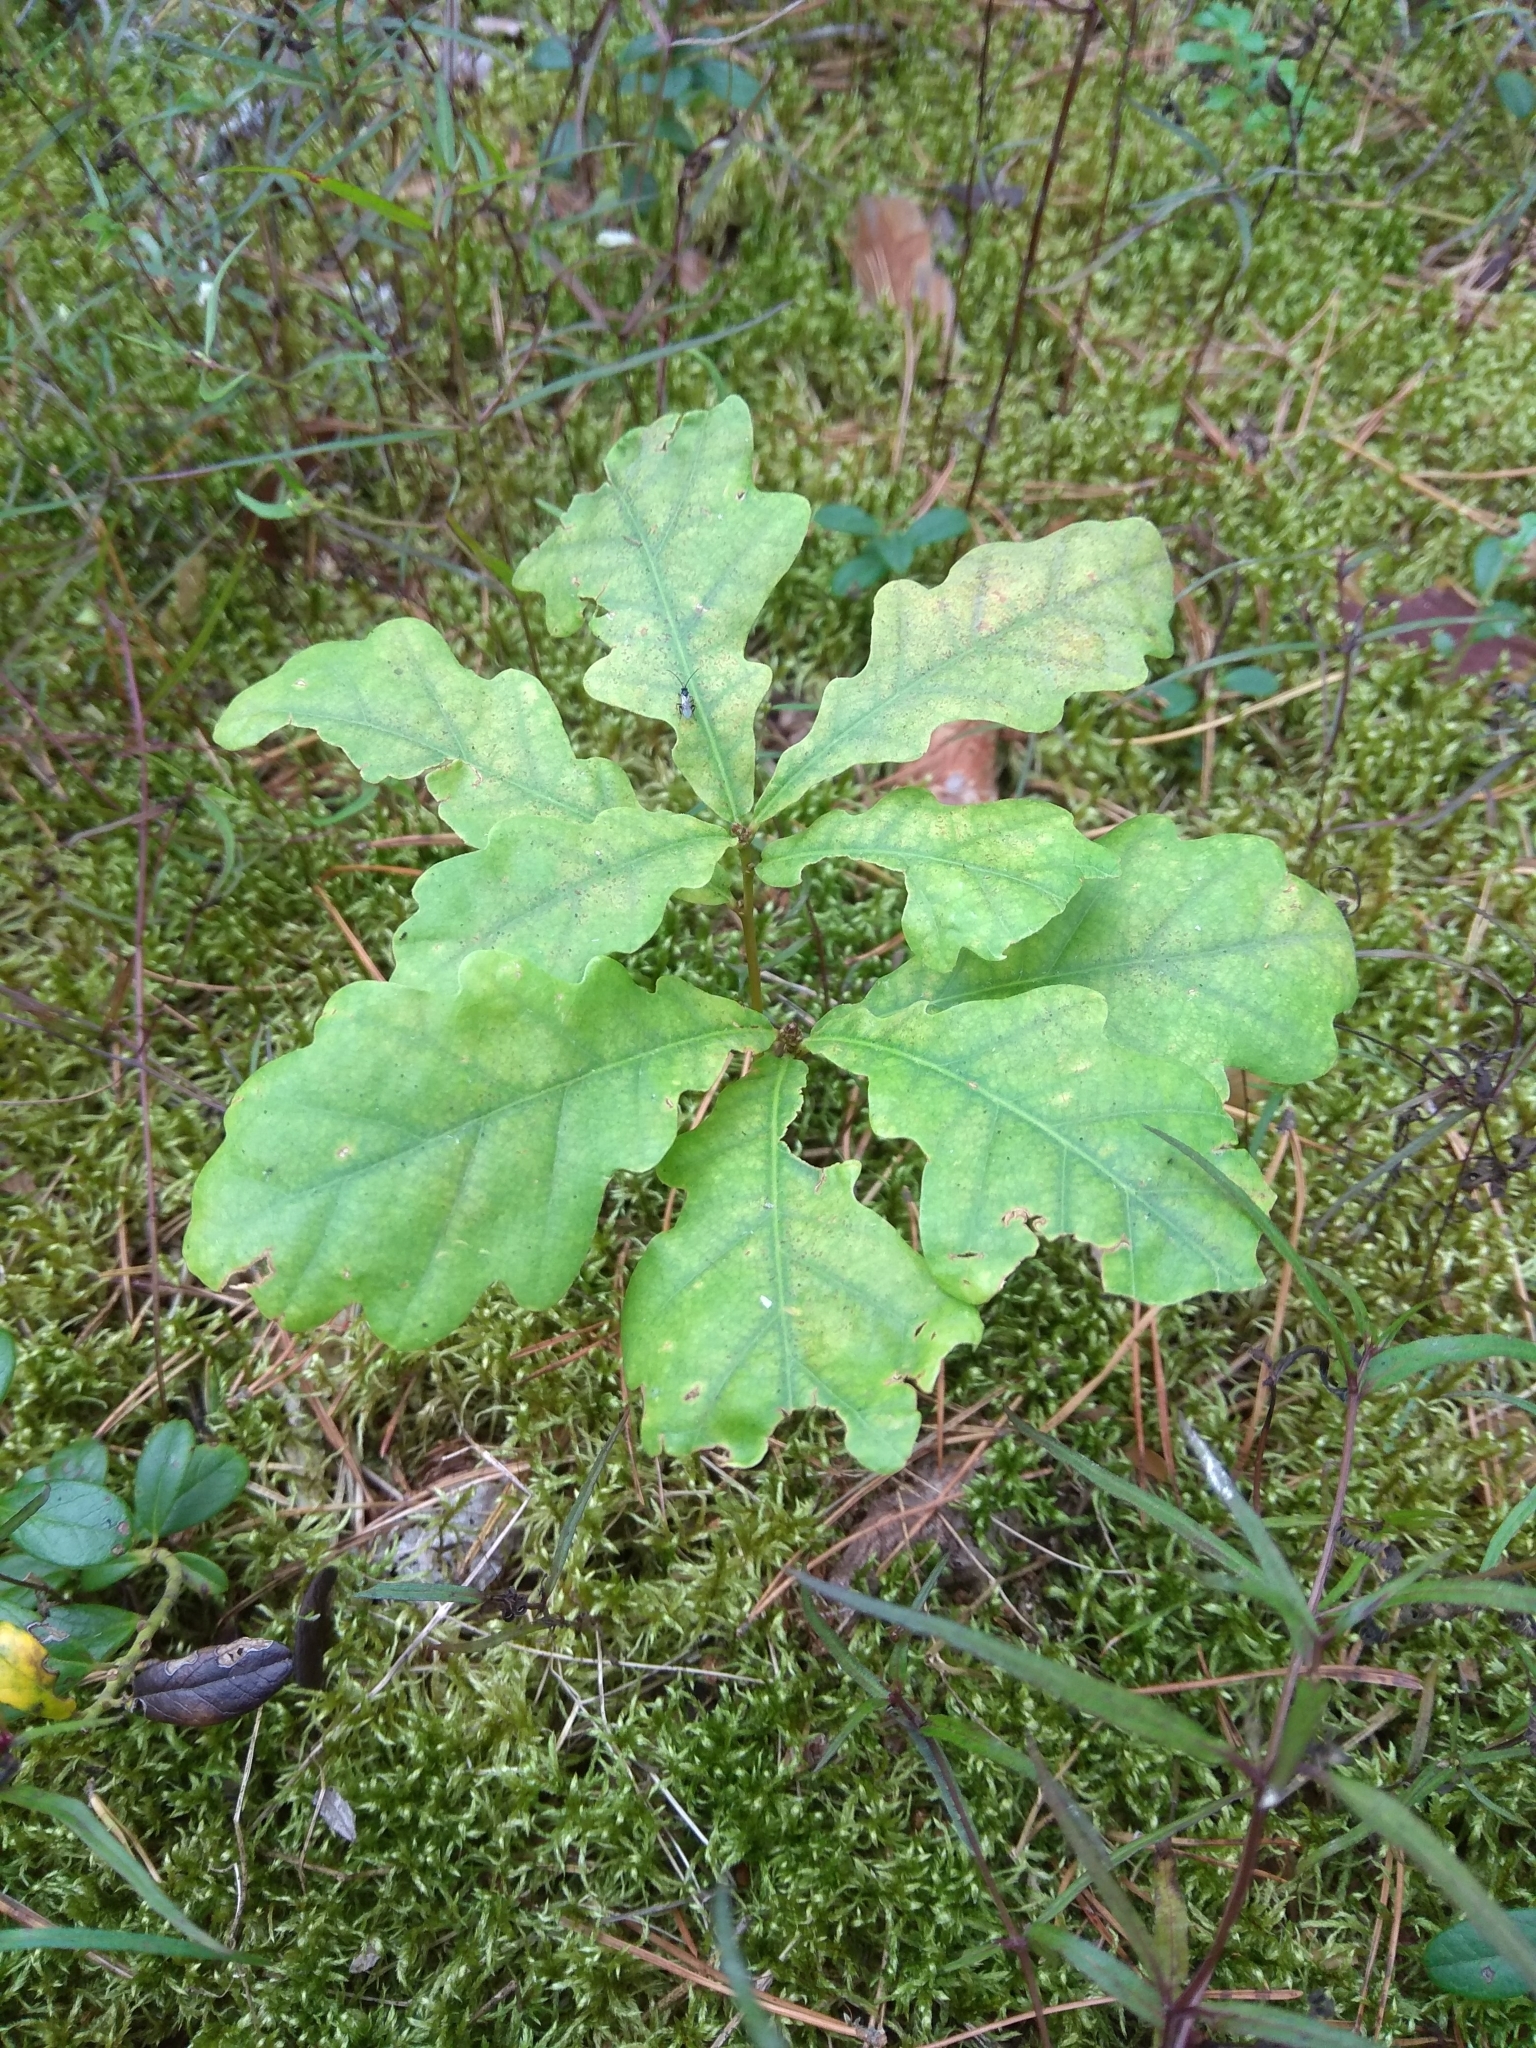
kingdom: Plantae
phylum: Tracheophyta
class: Magnoliopsida
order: Fagales
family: Fagaceae
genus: Quercus
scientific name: Quercus robur
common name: Pedunculate oak
